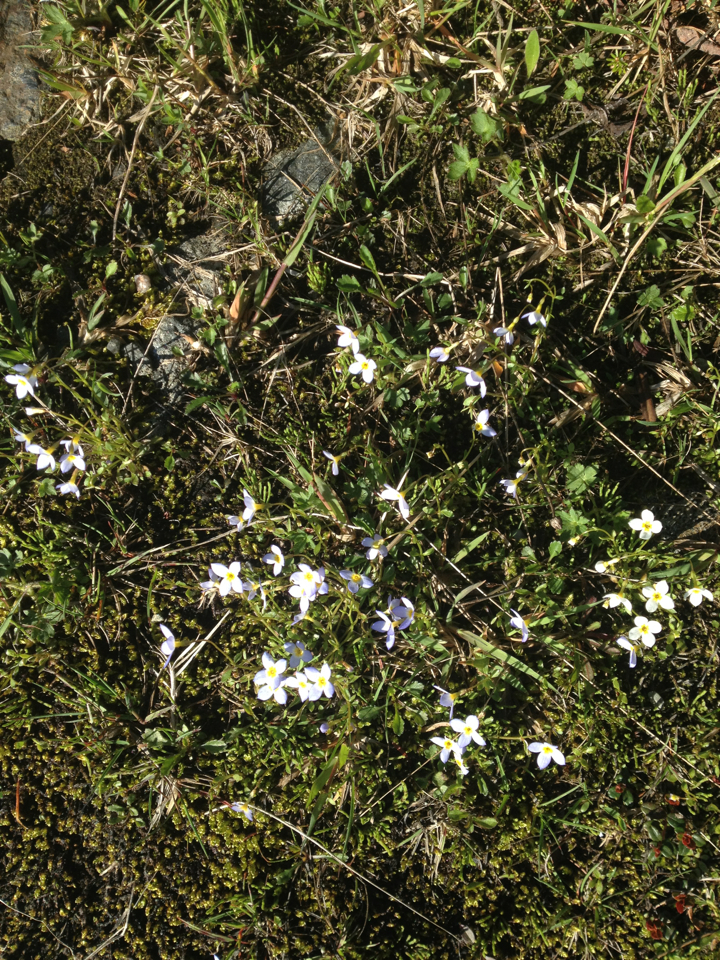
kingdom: Plantae
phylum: Tracheophyta
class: Magnoliopsida
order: Gentianales
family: Rubiaceae
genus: Houstonia
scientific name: Houstonia caerulea
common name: Bluets
